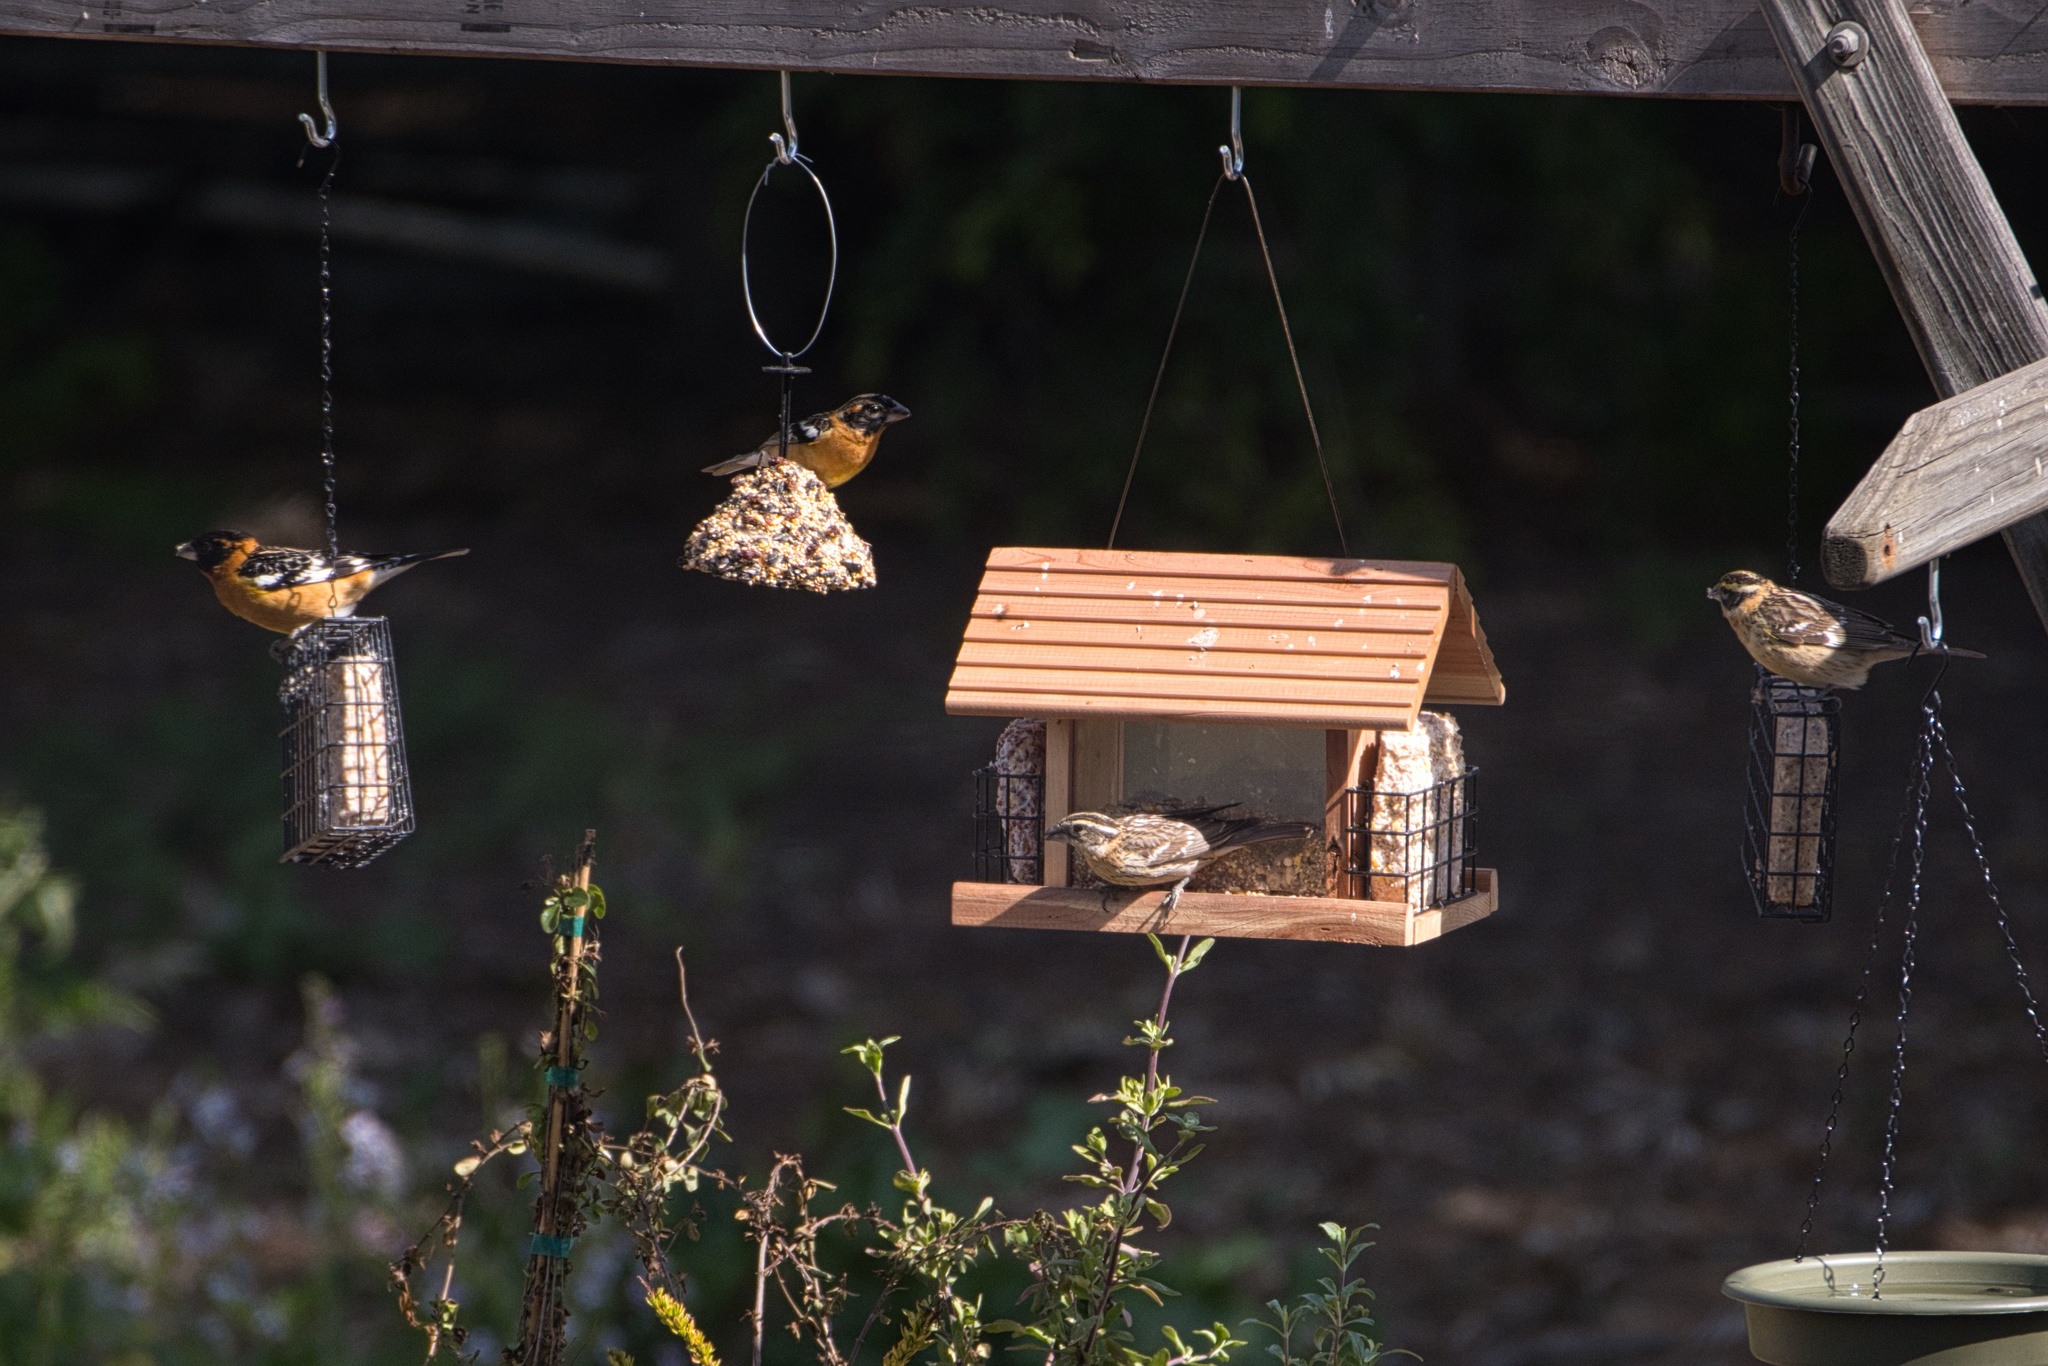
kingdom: Animalia
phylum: Chordata
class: Aves
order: Passeriformes
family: Cardinalidae
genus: Pheucticus
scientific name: Pheucticus melanocephalus
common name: Black-headed grosbeak
